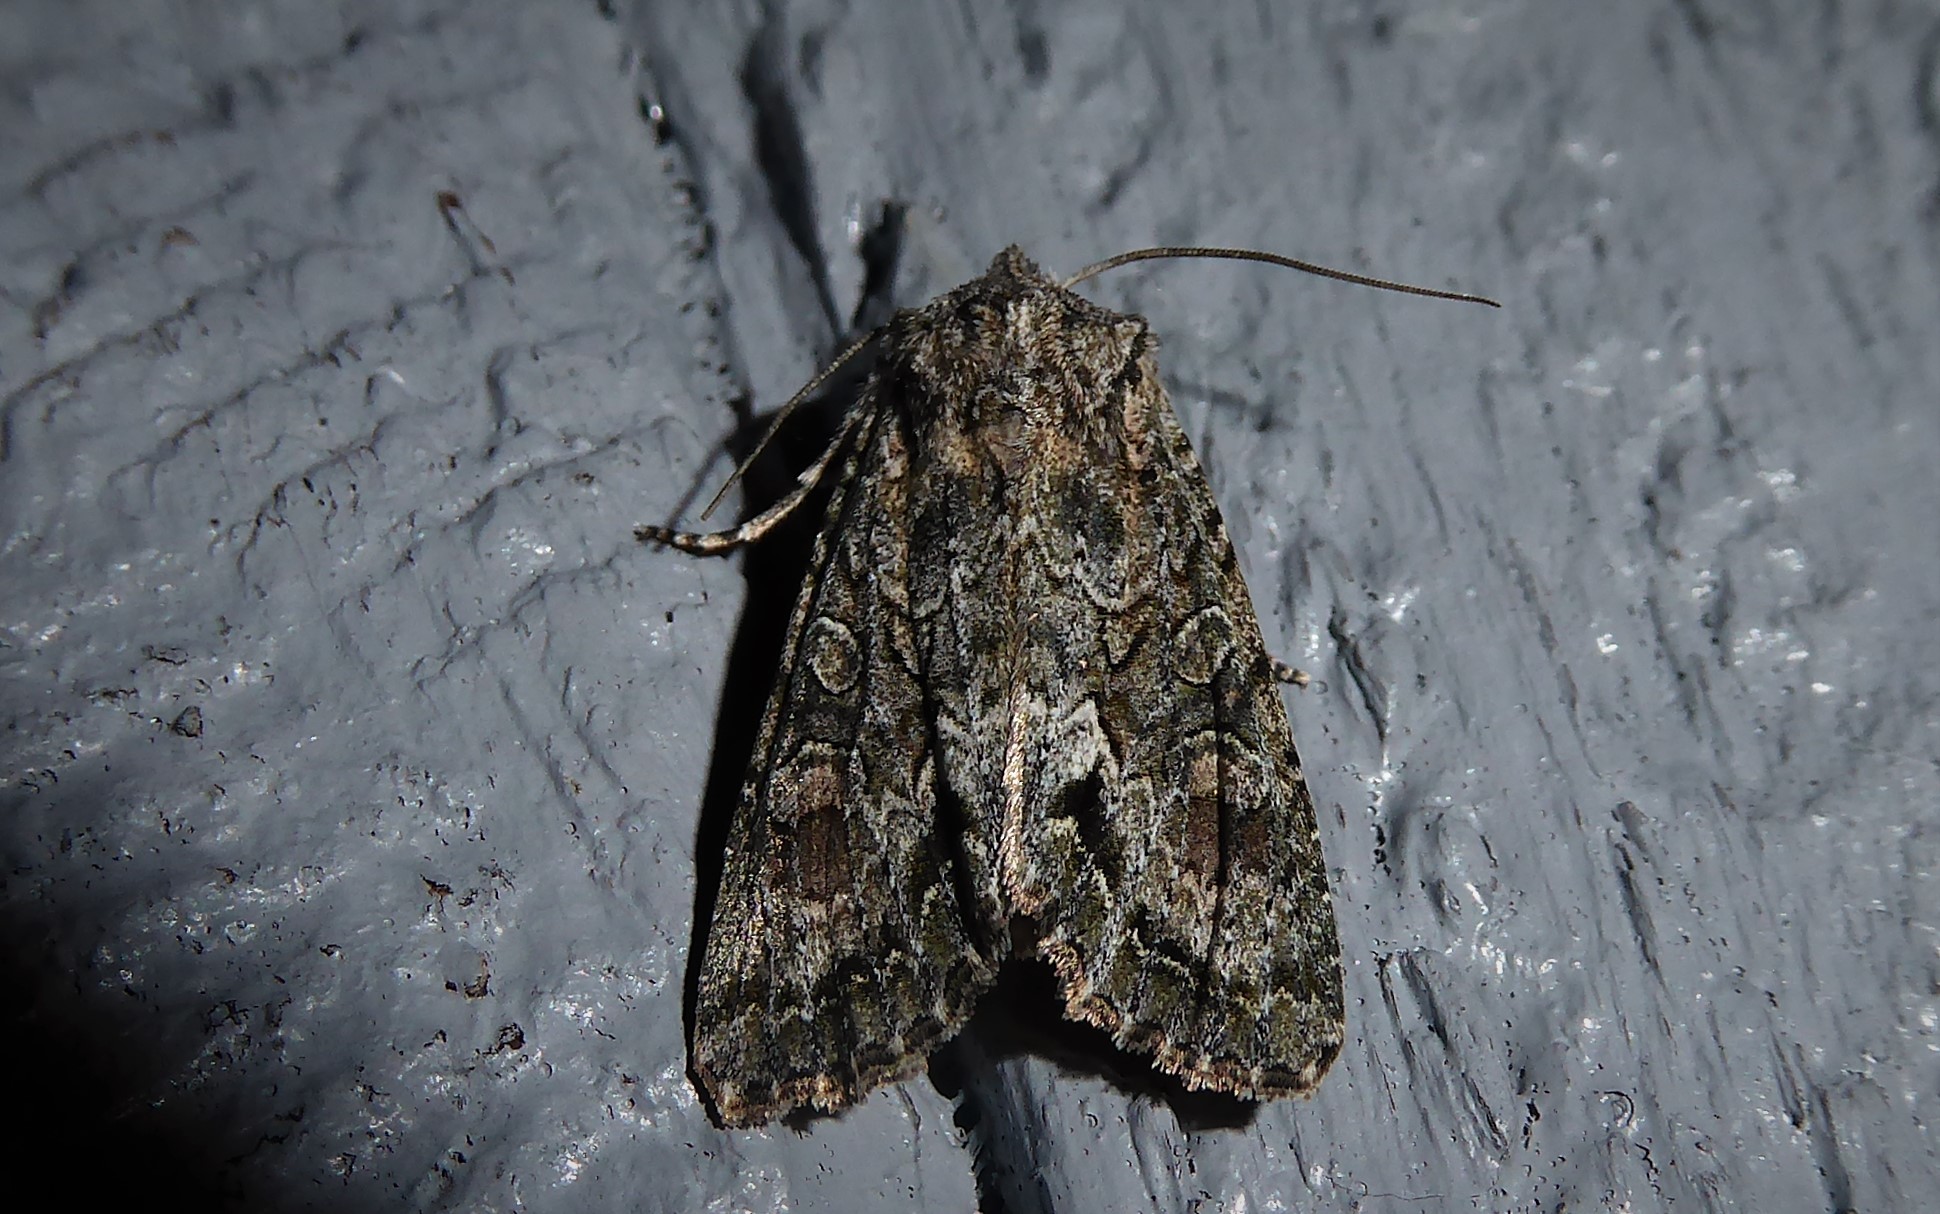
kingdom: Animalia
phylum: Arthropoda
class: Insecta
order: Lepidoptera
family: Noctuidae
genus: Ichneutica
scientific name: Ichneutica mutans
